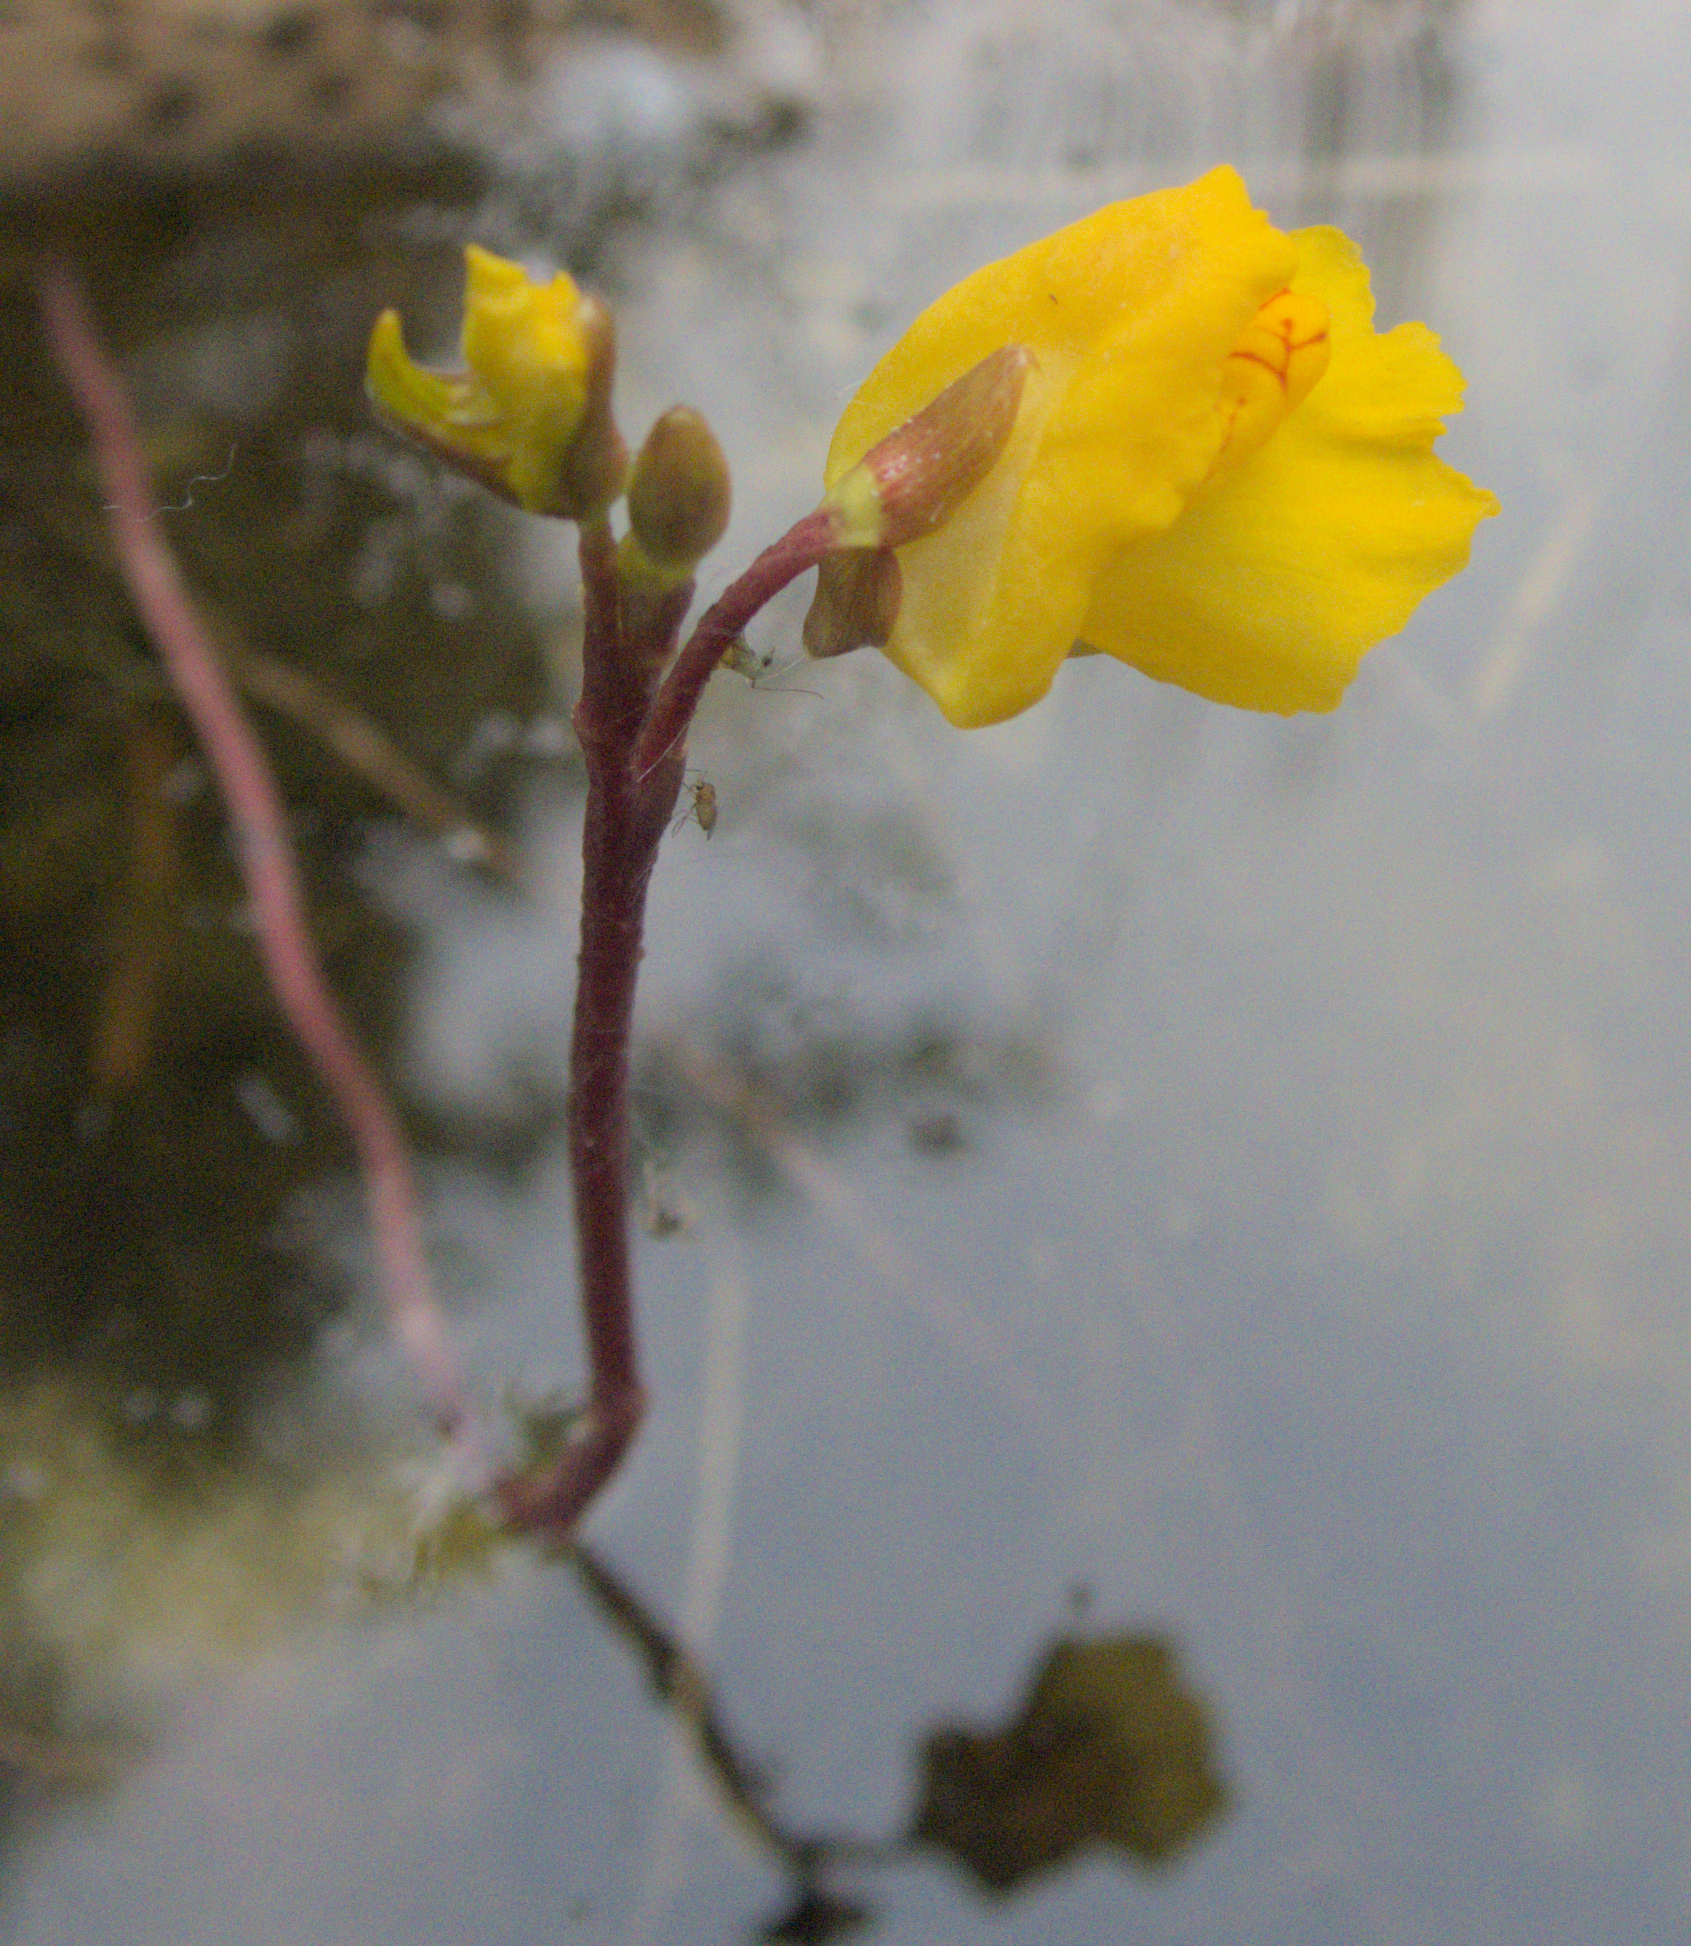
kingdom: Plantae
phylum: Tracheophyta
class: Magnoliopsida
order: Lamiales
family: Lentibulariaceae
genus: Utricularia
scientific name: Utricularia macrorhiza
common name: Common bladderwort
